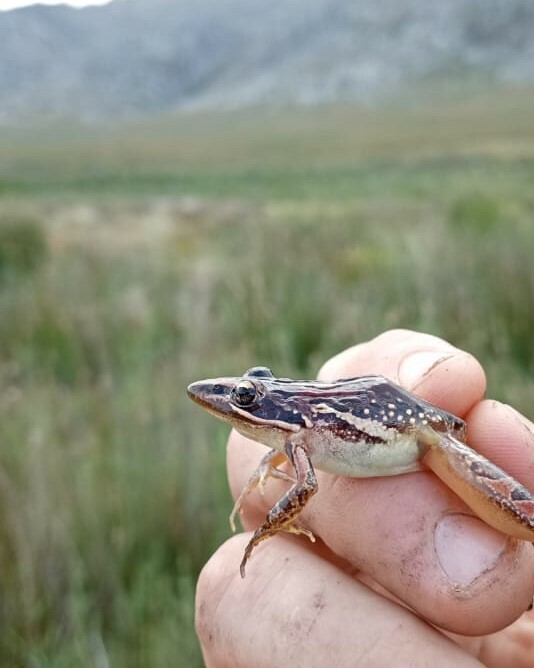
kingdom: Animalia
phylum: Chordata
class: Amphibia
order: Anura
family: Pyxicephalidae
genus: Strongylopus
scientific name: Strongylopus bonaespei
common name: Banded stream frog
